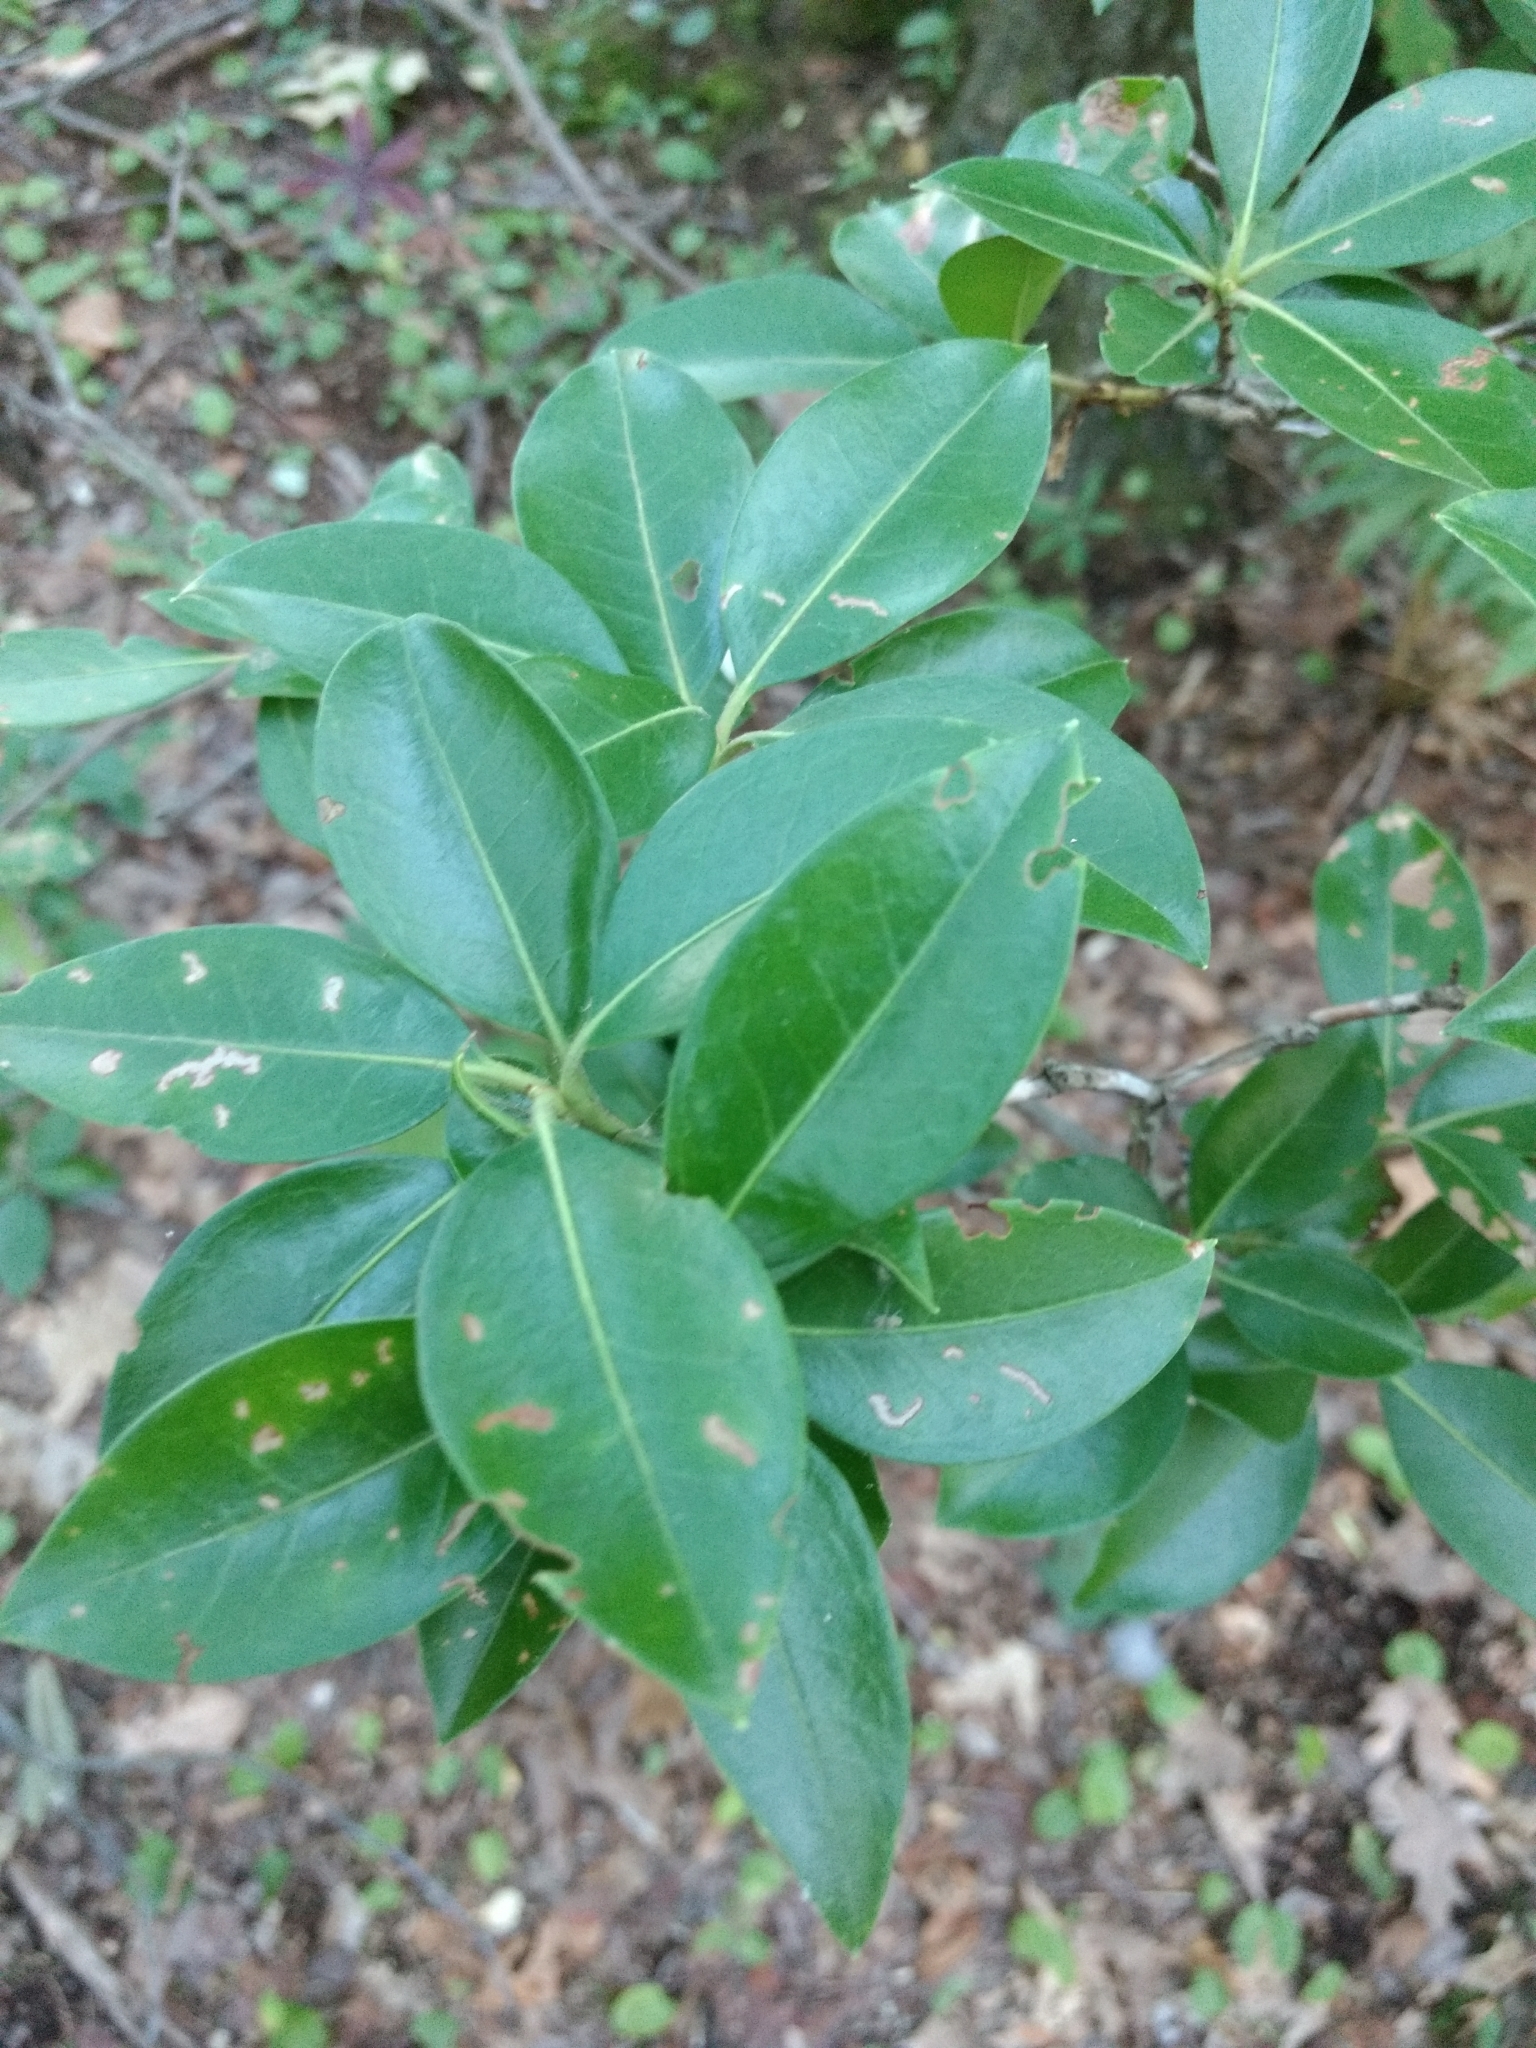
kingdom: Plantae
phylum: Tracheophyta
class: Magnoliopsida
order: Ericales
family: Ericaceae
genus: Kalmia
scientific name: Kalmia latifolia
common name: Mountain-laurel
